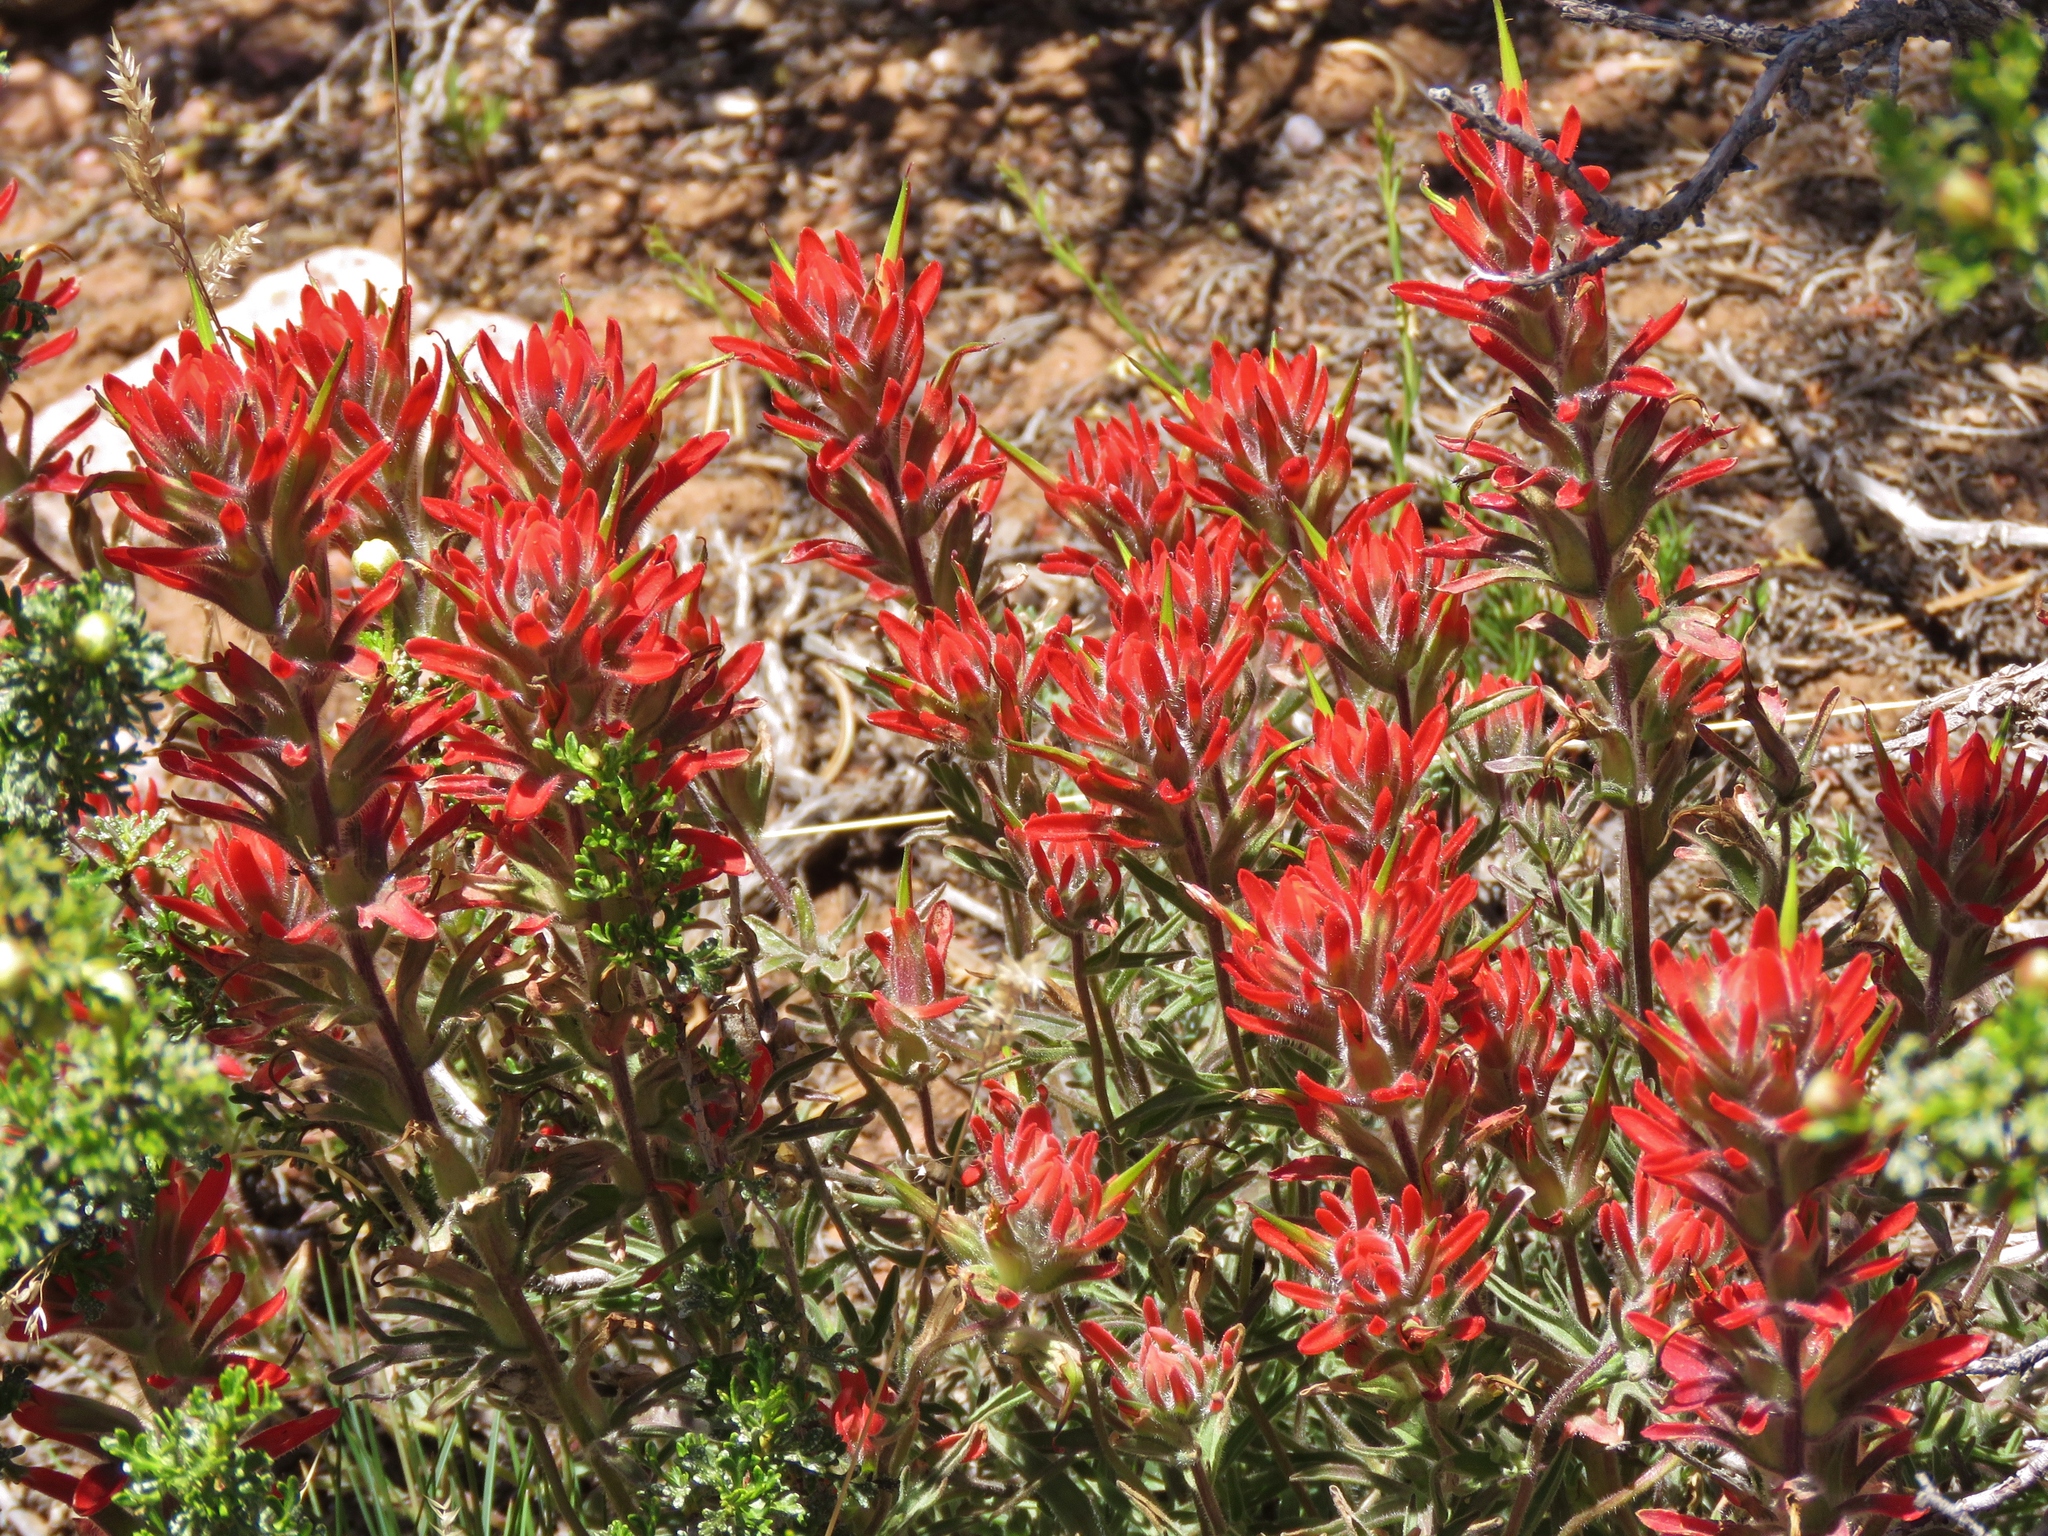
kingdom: Plantae
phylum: Tracheophyta
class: Magnoliopsida
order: Lamiales
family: Orobanchaceae
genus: Castilleja
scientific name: Castilleja chromosa
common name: Desert paintbrush
